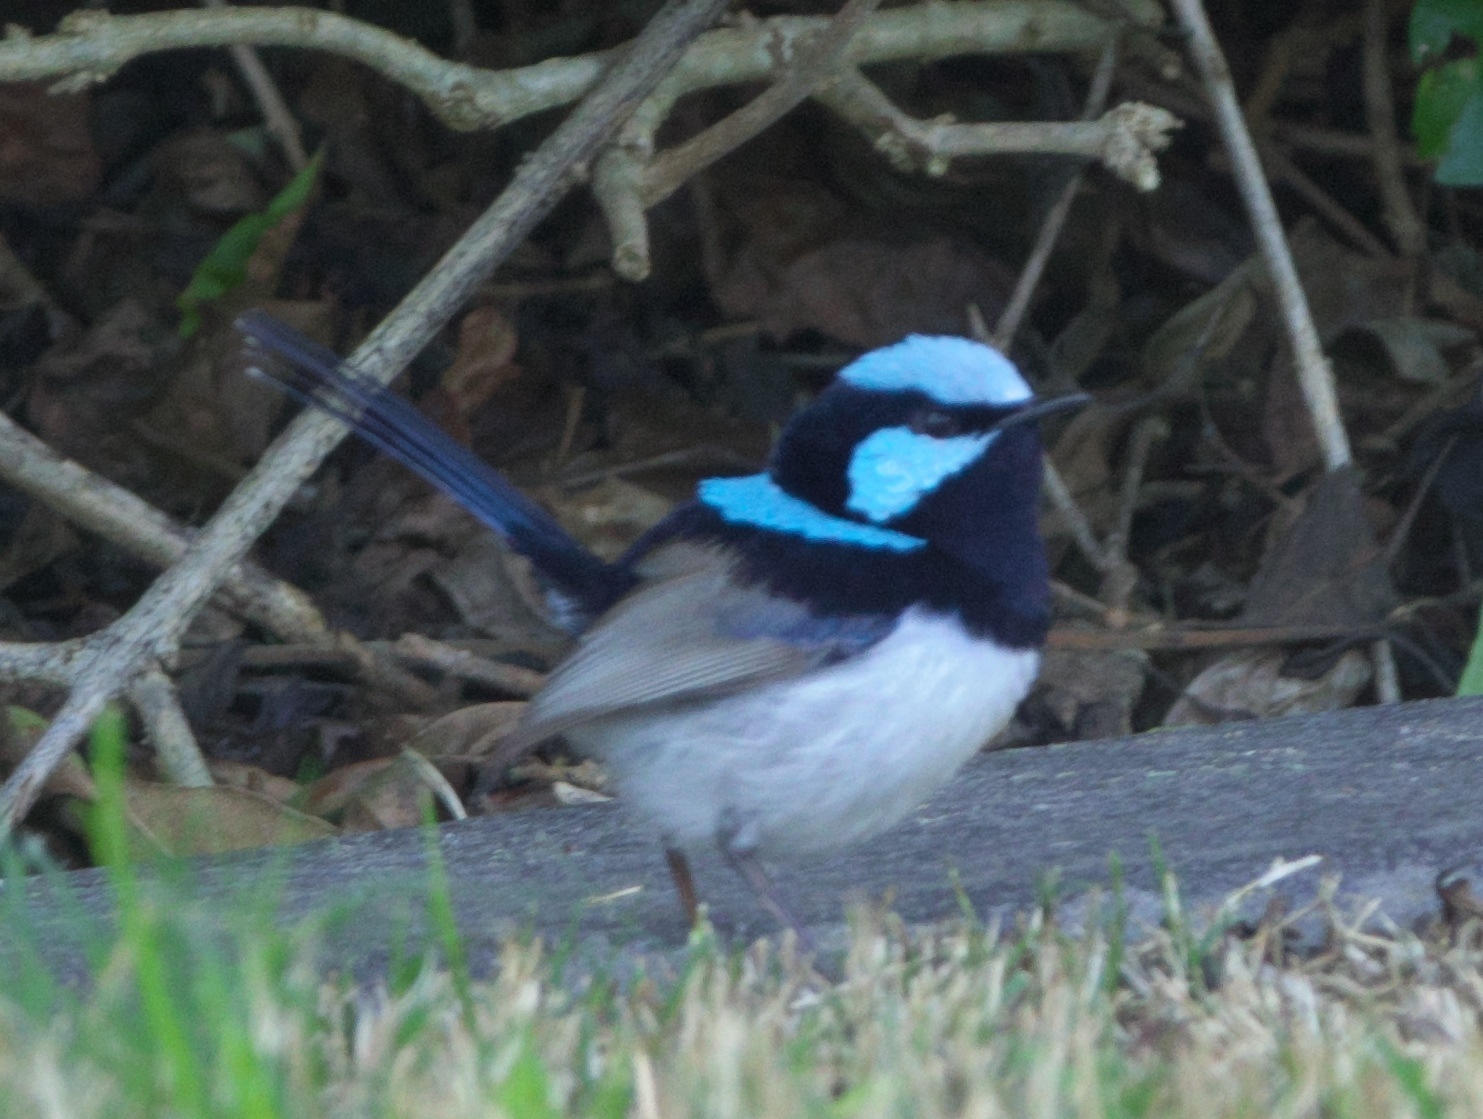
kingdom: Animalia
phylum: Chordata
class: Aves
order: Passeriformes
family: Maluridae
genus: Malurus
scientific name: Malurus cyaneus
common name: Superb fairywren
